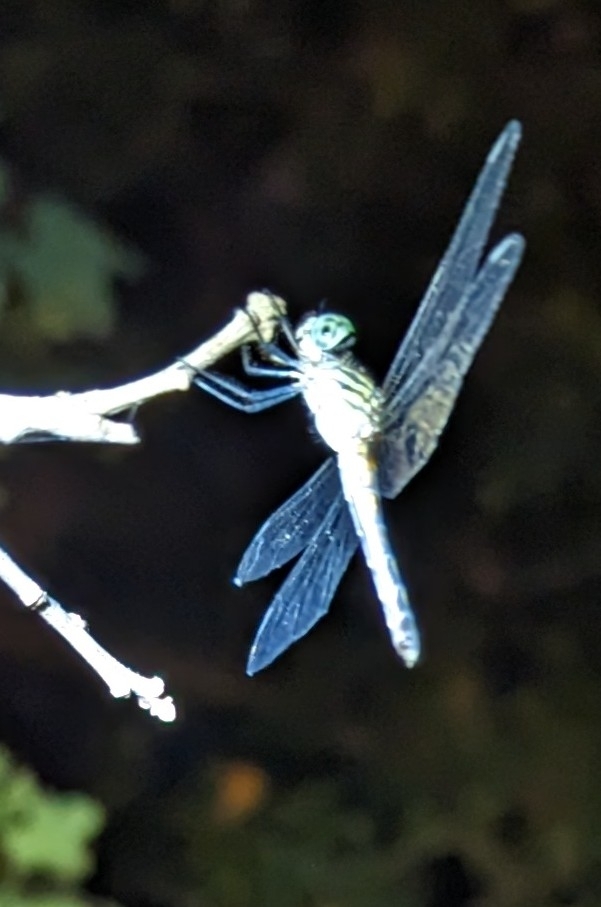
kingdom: Animalia
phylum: Arthropoda
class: Insecta
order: Odonata
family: Libellulidae
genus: Pachydiplax
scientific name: Pachydiplax longipennis
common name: Blue dasher
